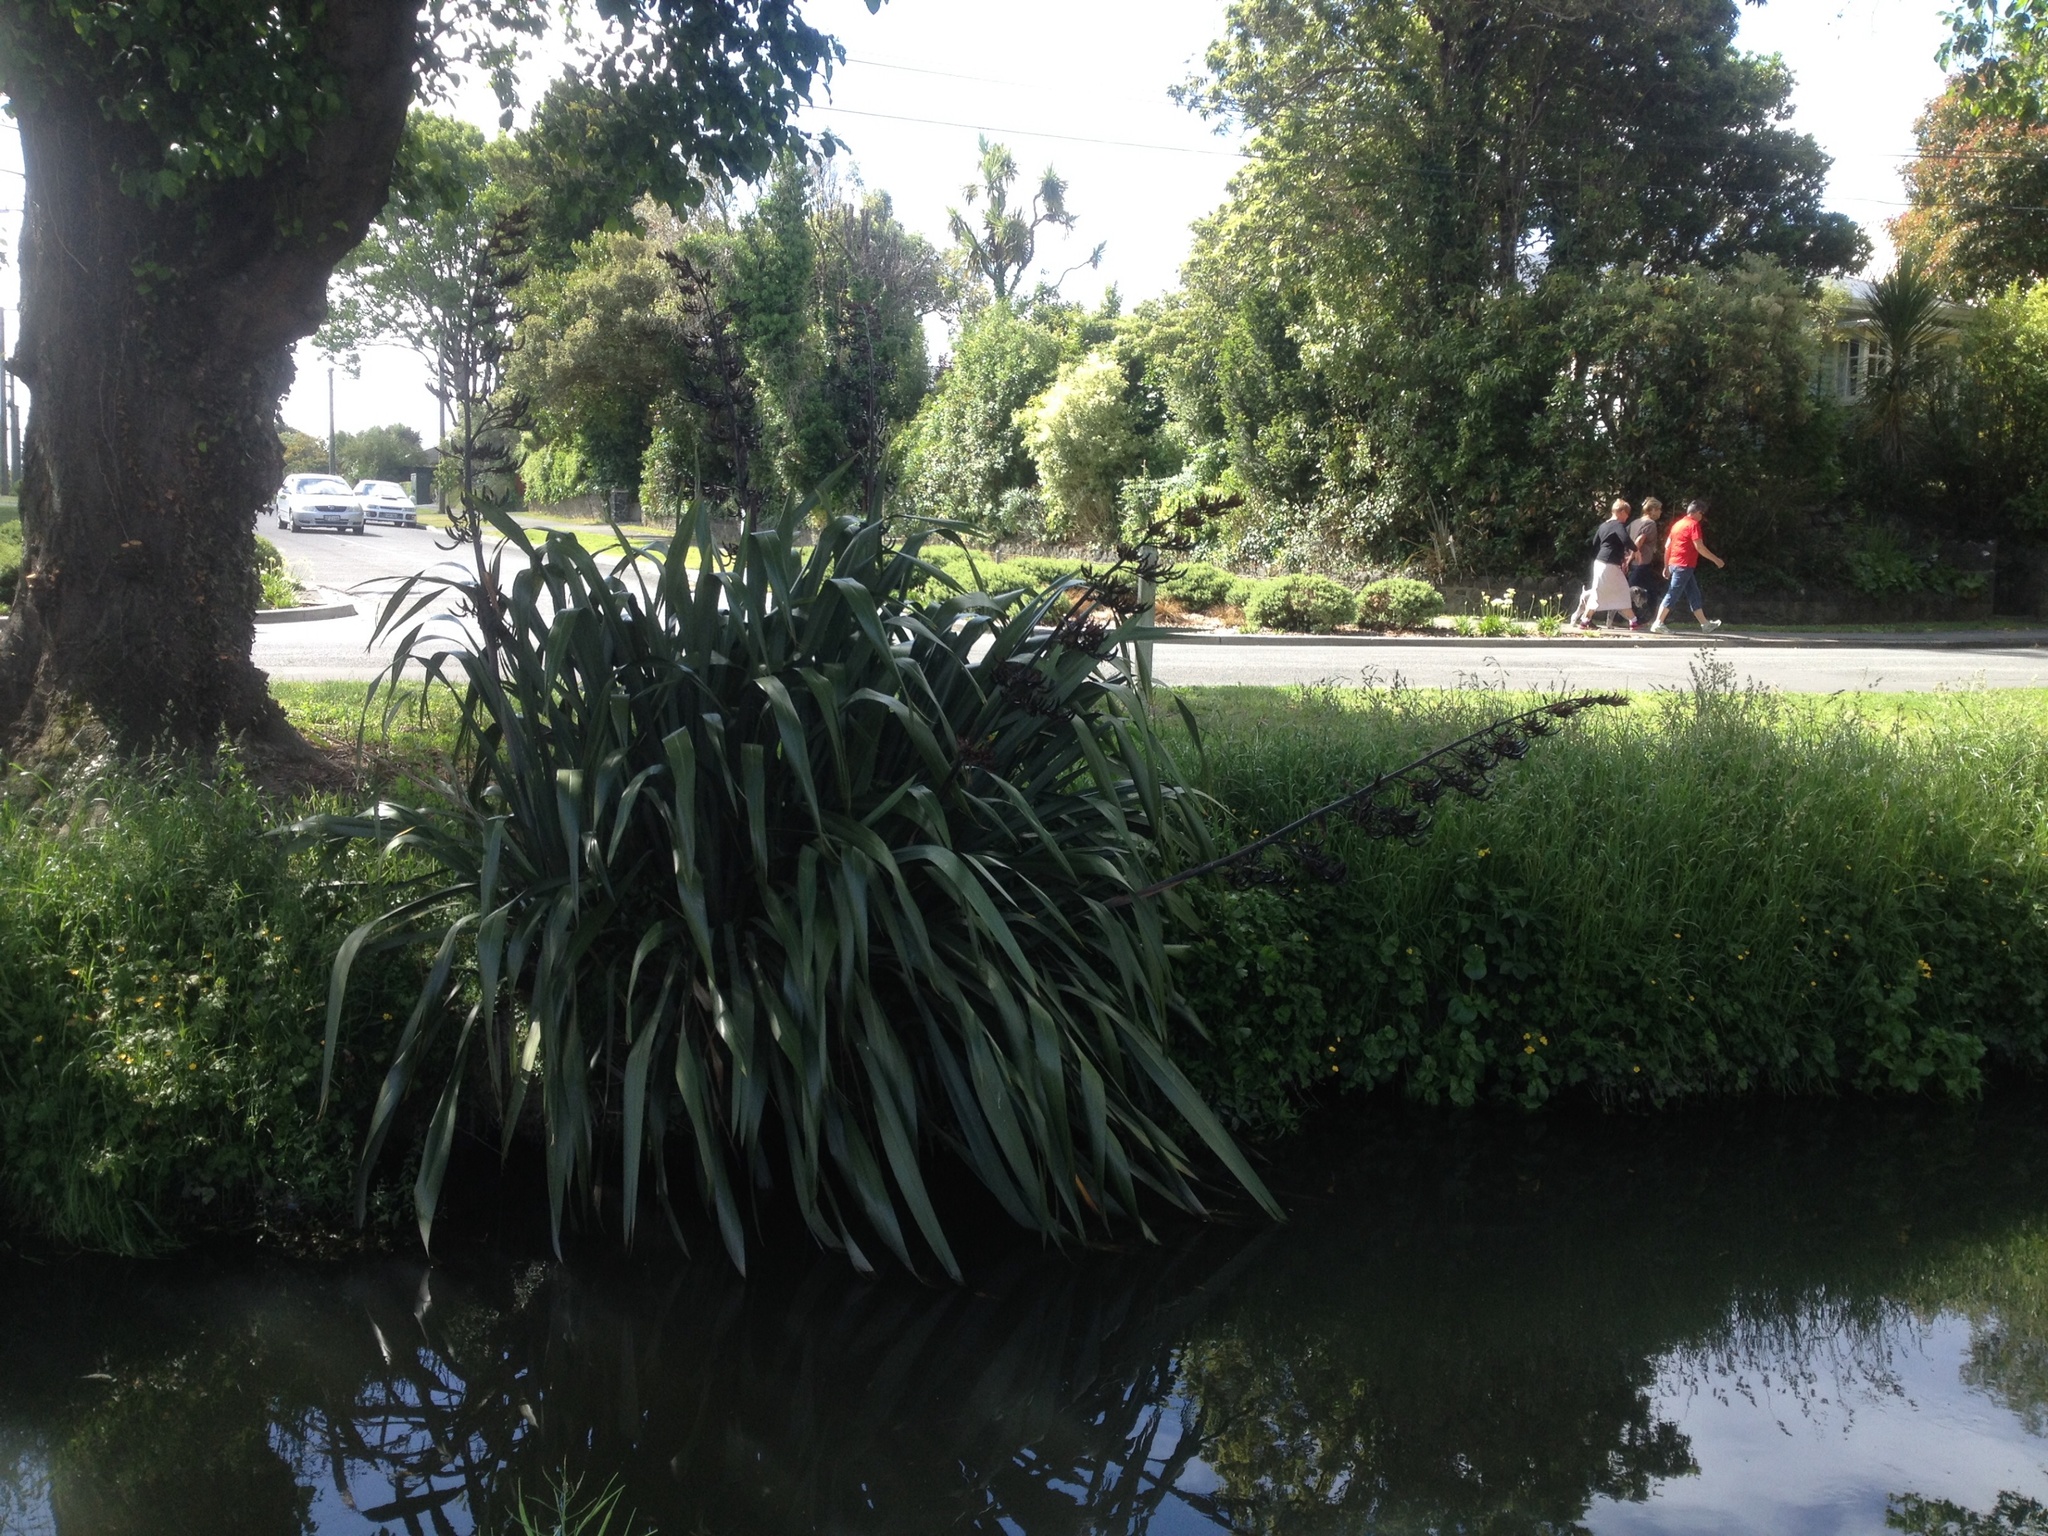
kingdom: Plantae
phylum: Tracheophyta
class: Liliopsida
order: Asparagales
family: Asphodelaceae
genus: Phormium
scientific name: Phormium tenax
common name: New zealand flax
